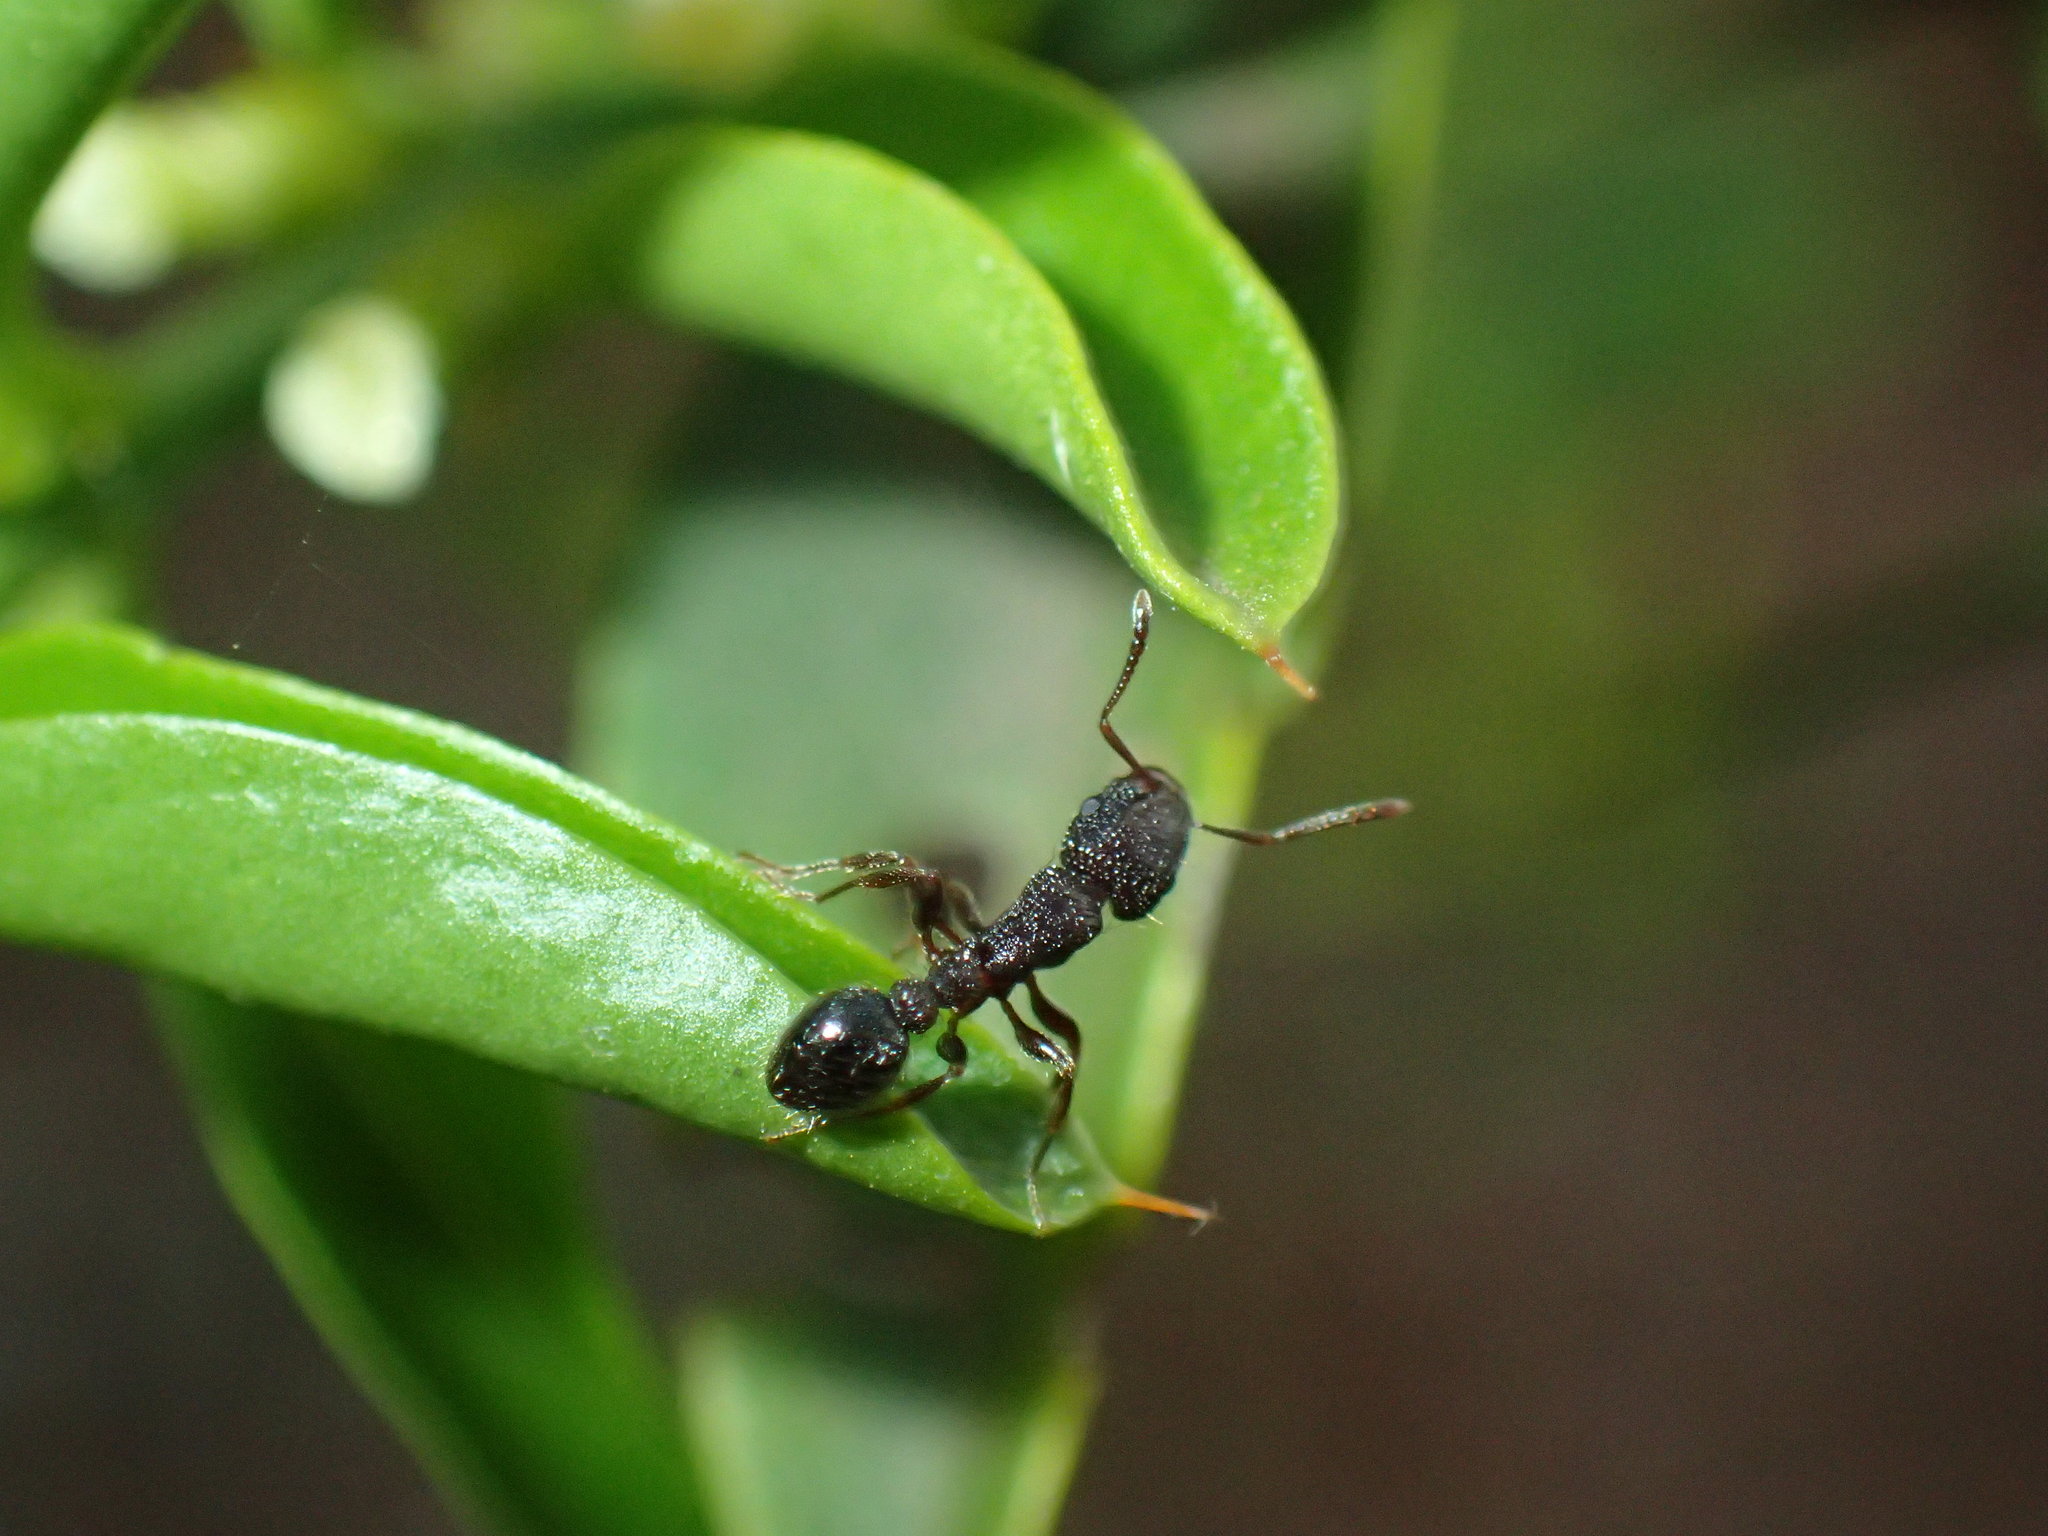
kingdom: Animalia
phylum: Arthropoda
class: Insecta
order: Hymenoptera
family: Formicidae
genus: Tetramorium
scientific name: Tetramorium erectum
